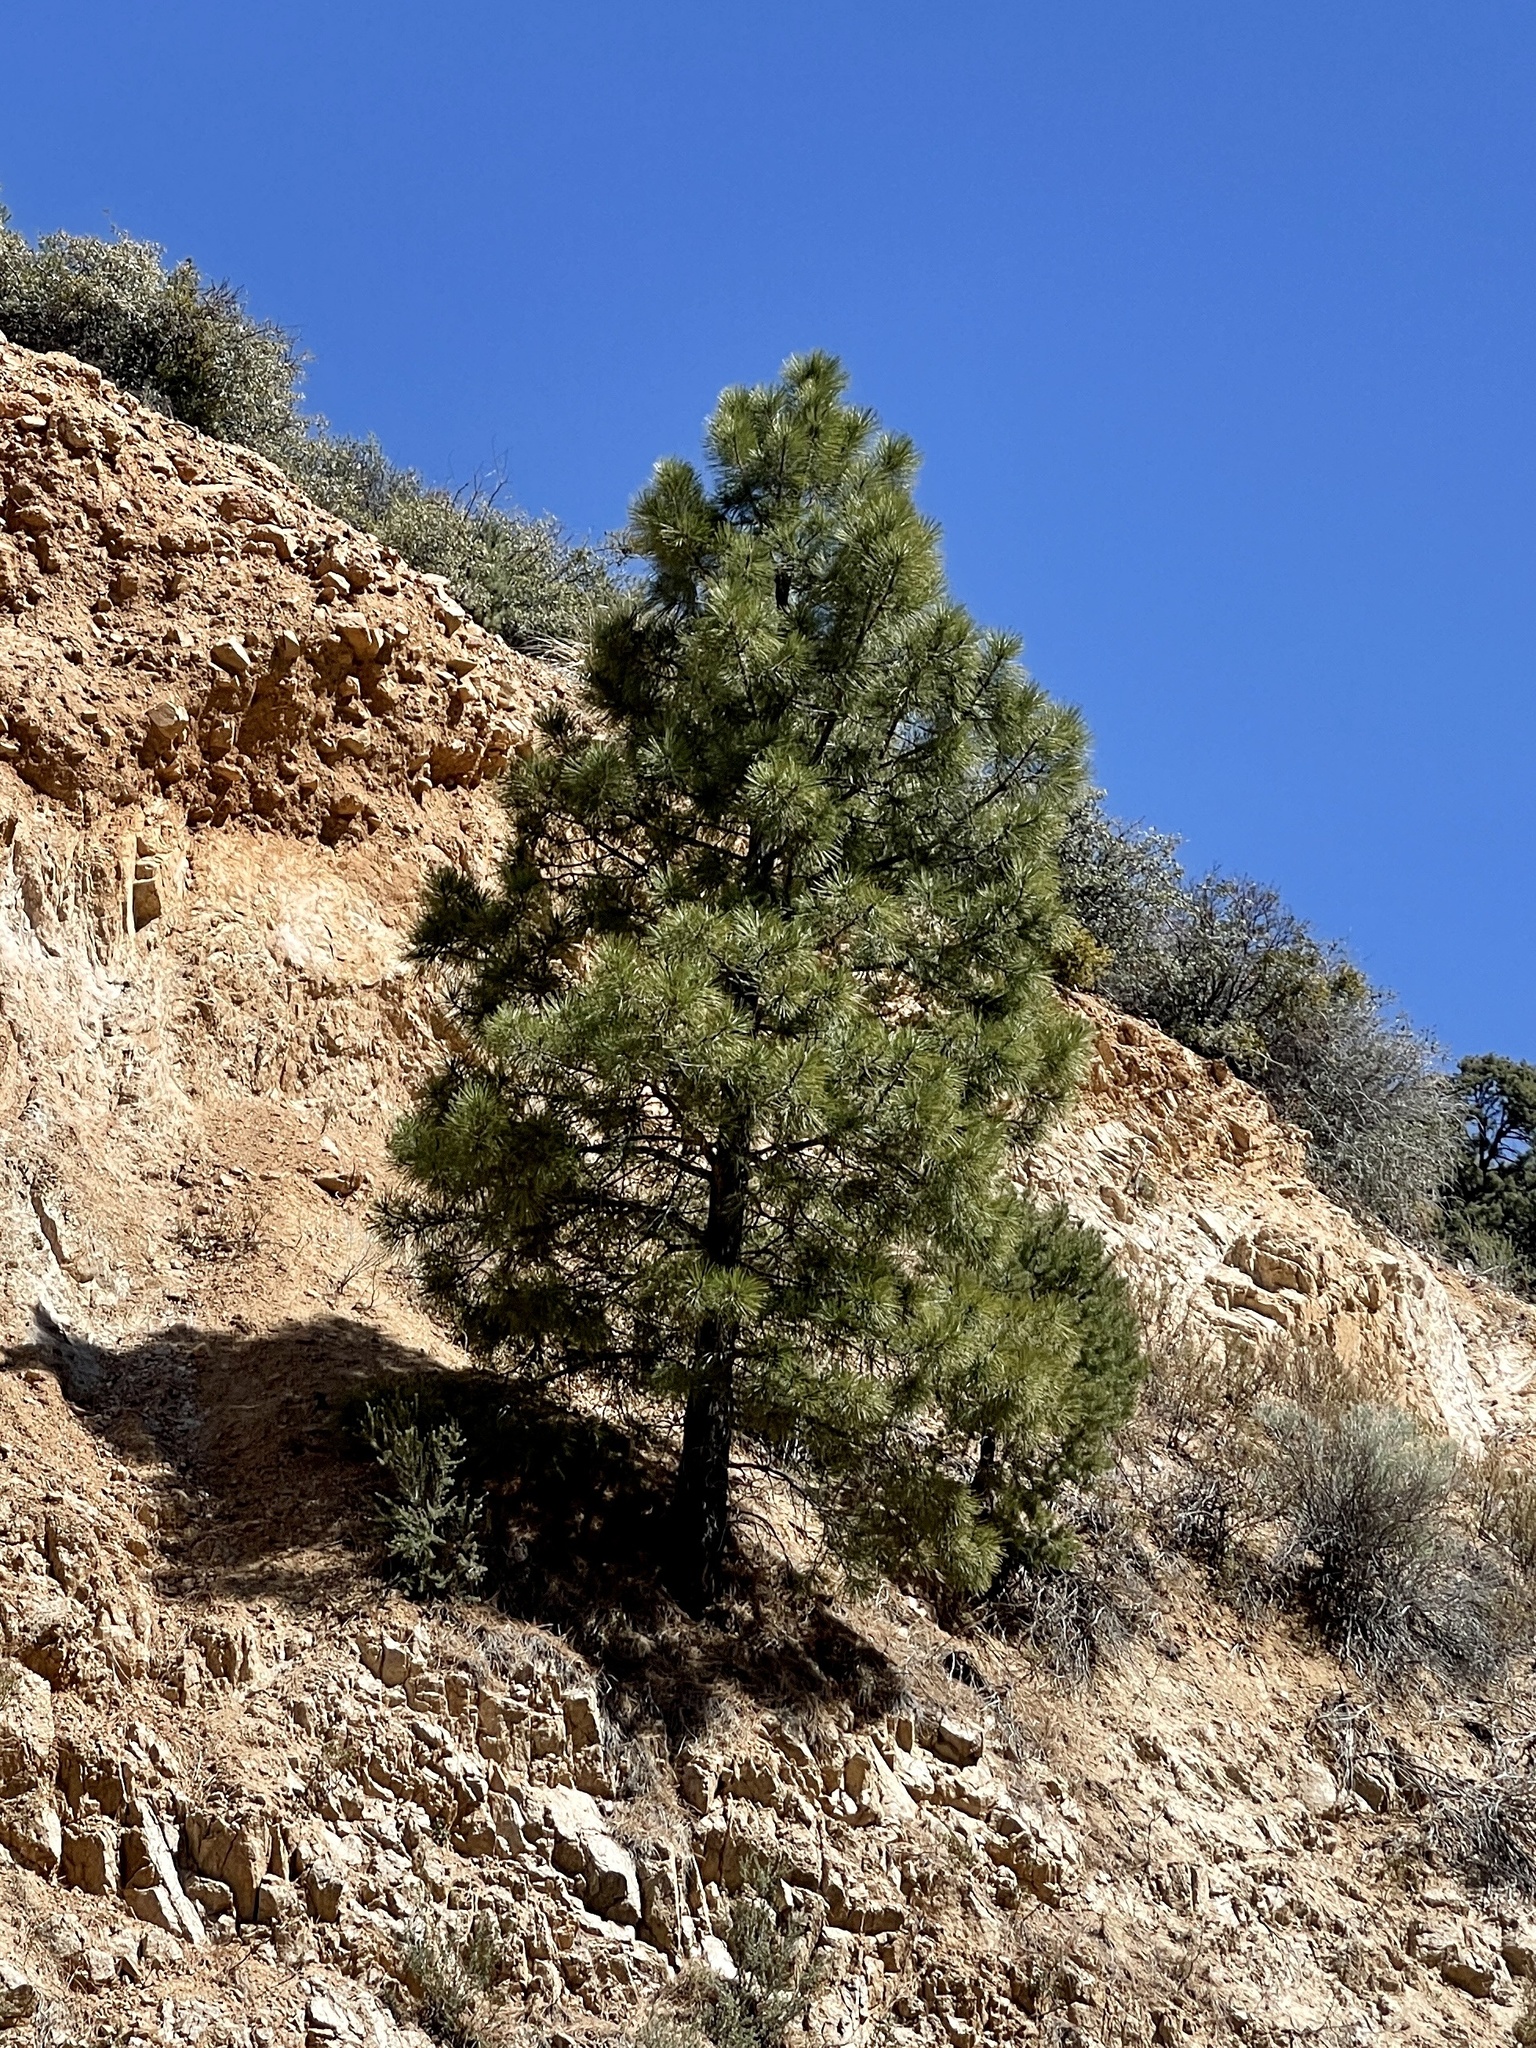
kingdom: Plantae
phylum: Tracheophyta
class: Pinopsida
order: Pinales
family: Pinaceae
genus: Pinus
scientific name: Pinus ponderosa
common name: Western yellow-pine
